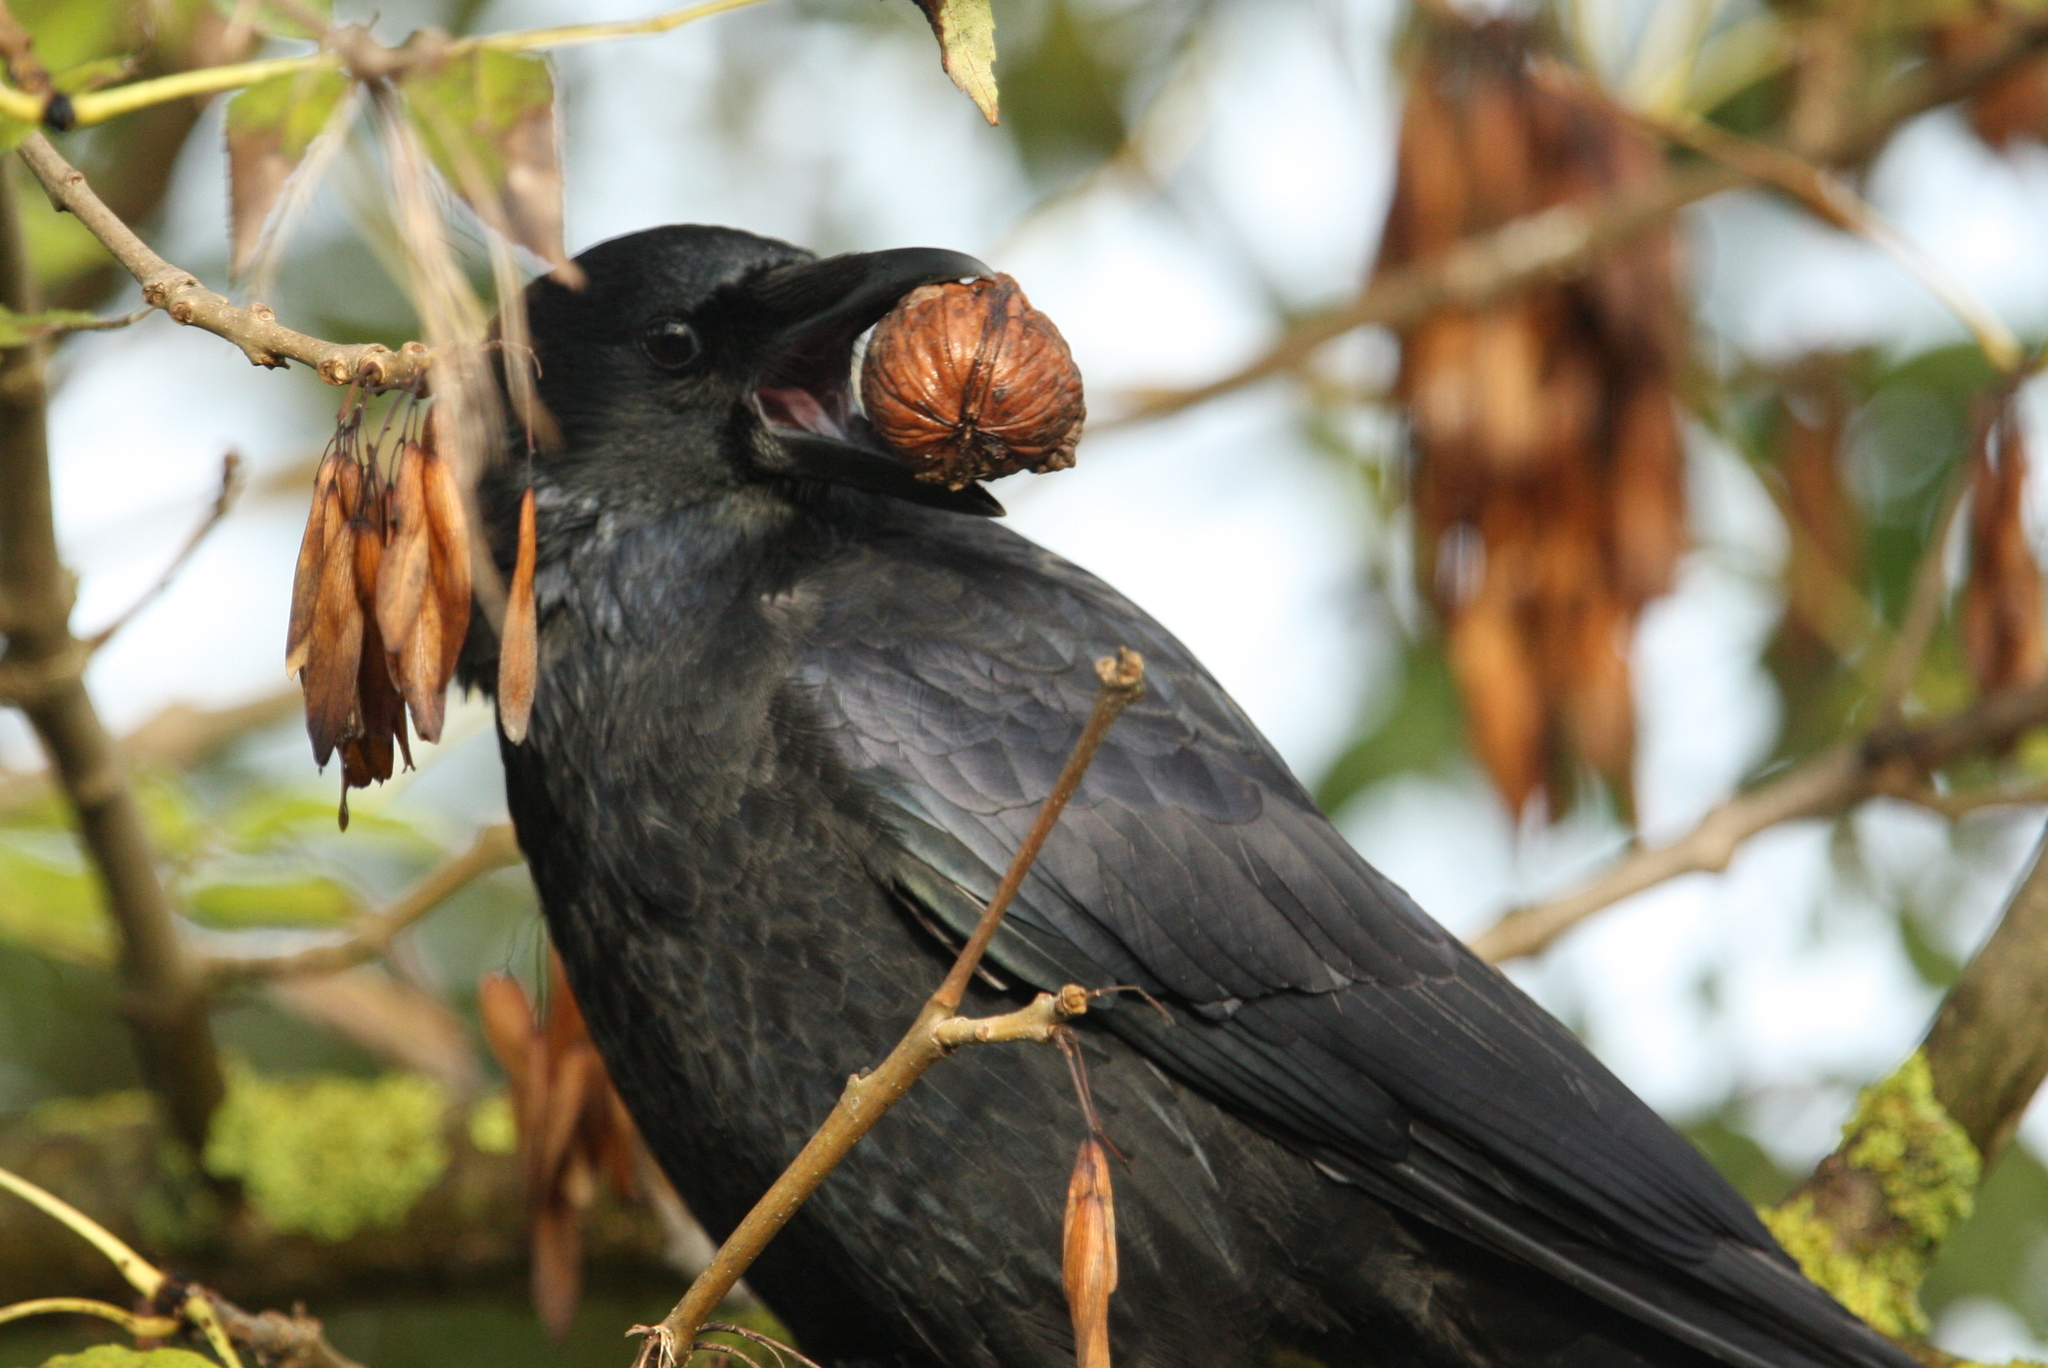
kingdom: Animalia
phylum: Chordata
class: Aves
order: Passeriformes
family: Corvidae
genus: Corvus
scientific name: Corvus corone
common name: Carrion crow
